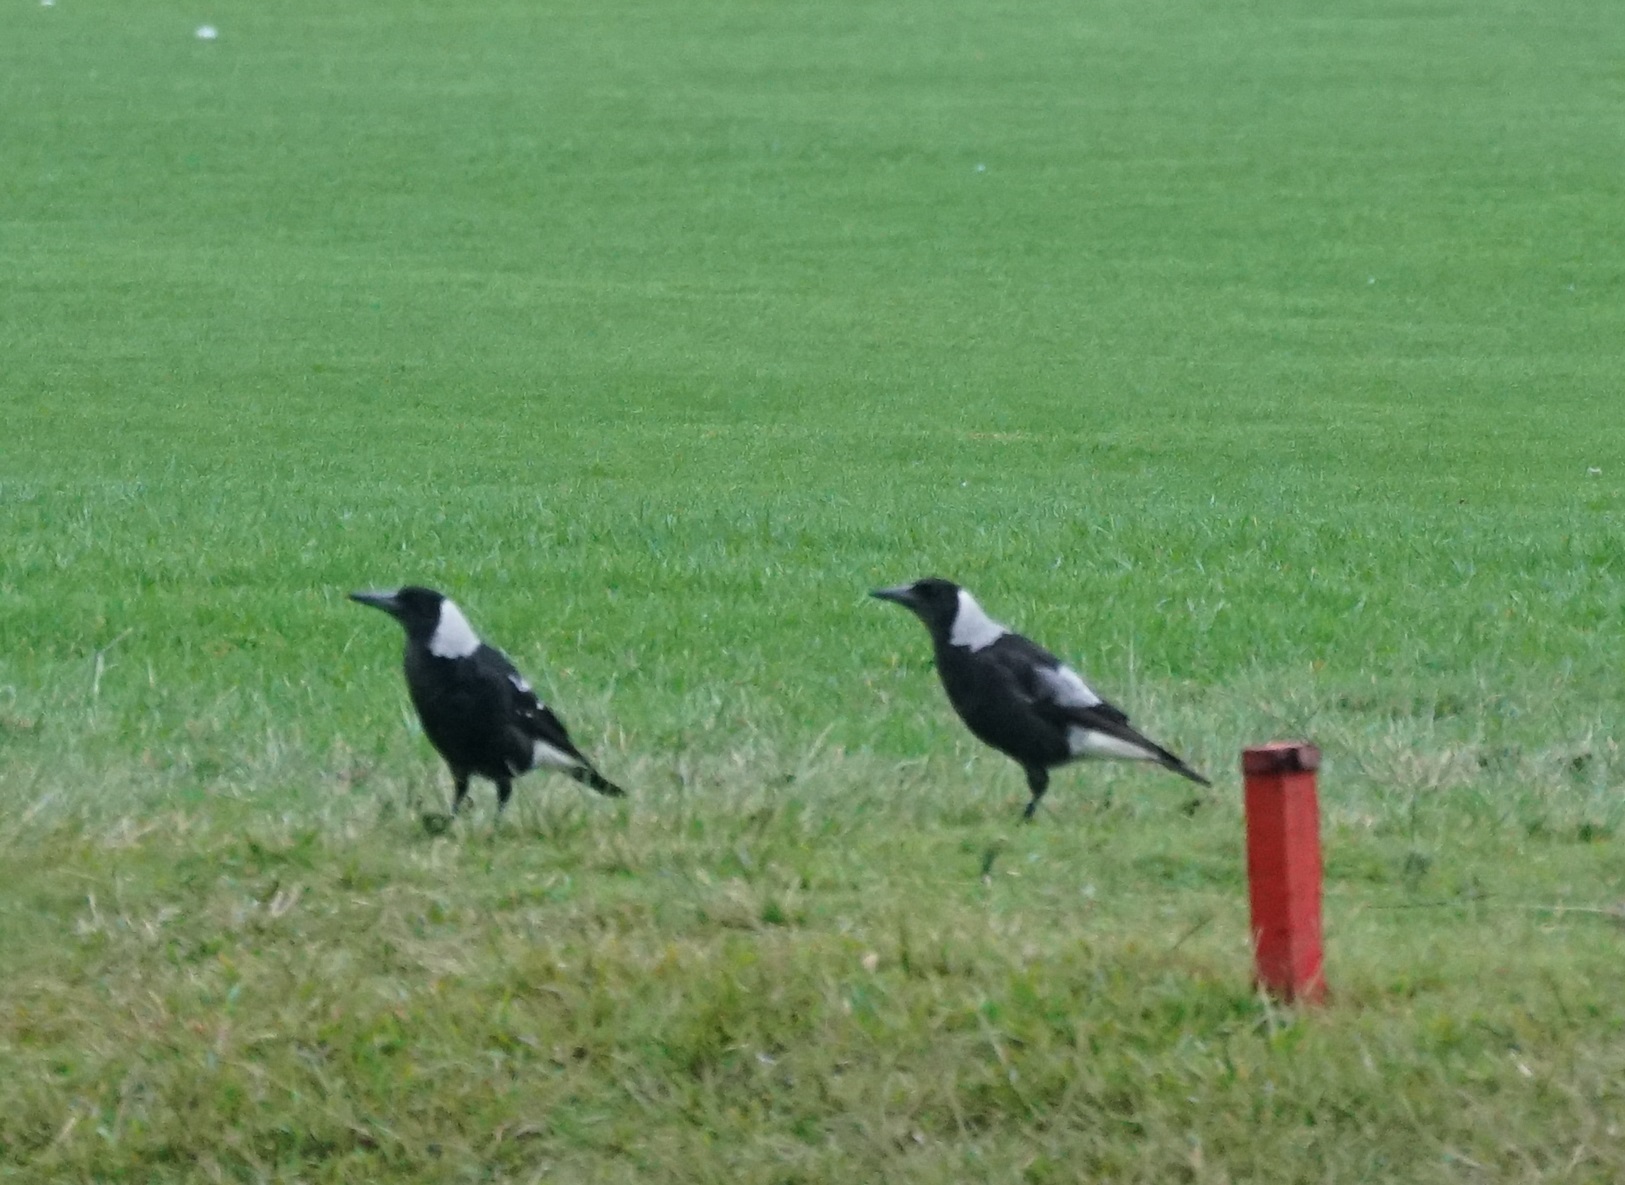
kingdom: Animalia
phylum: Chordata
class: Aves
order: Passeriformes
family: Cracticidae
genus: Gymnorhina
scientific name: Gymnorhina tibicen
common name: Australian magpie
